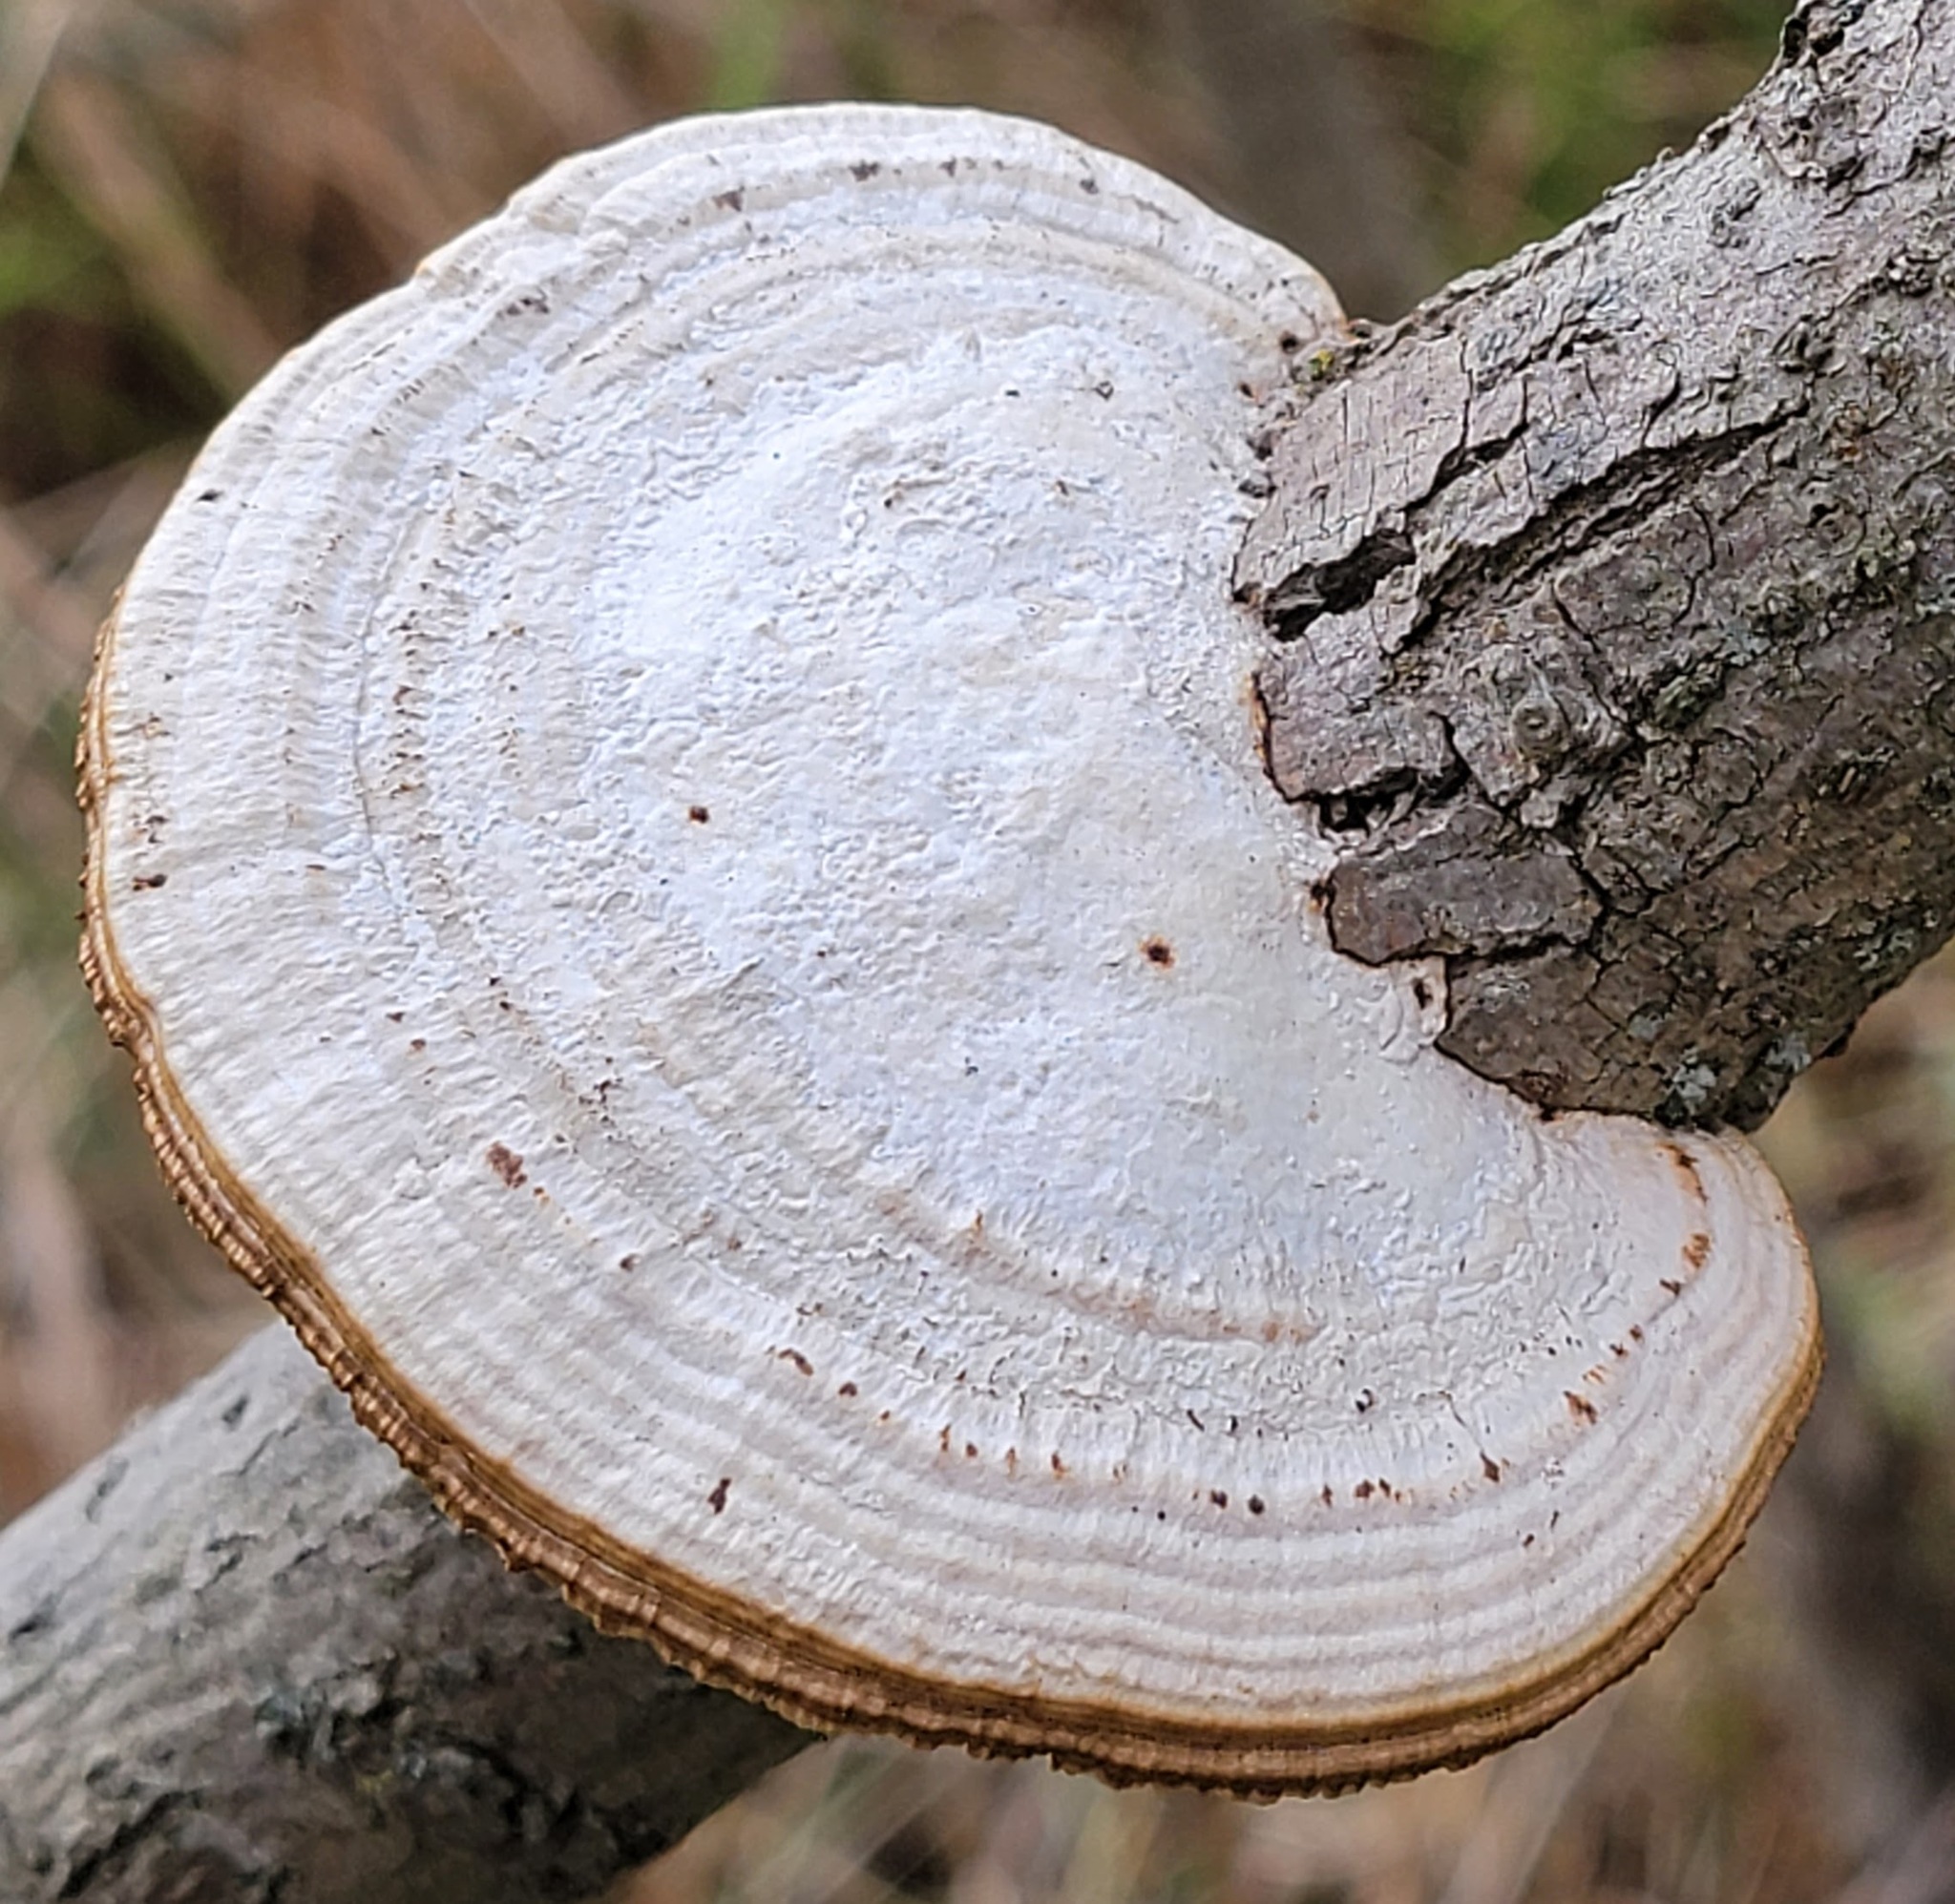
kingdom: Fungi
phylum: Basidiomycota
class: Agaricomycetes
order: Polyporales
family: Polyporaceae
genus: Daedaleopsis
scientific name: Daedaleopsis confragosa
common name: Blushing bracket
